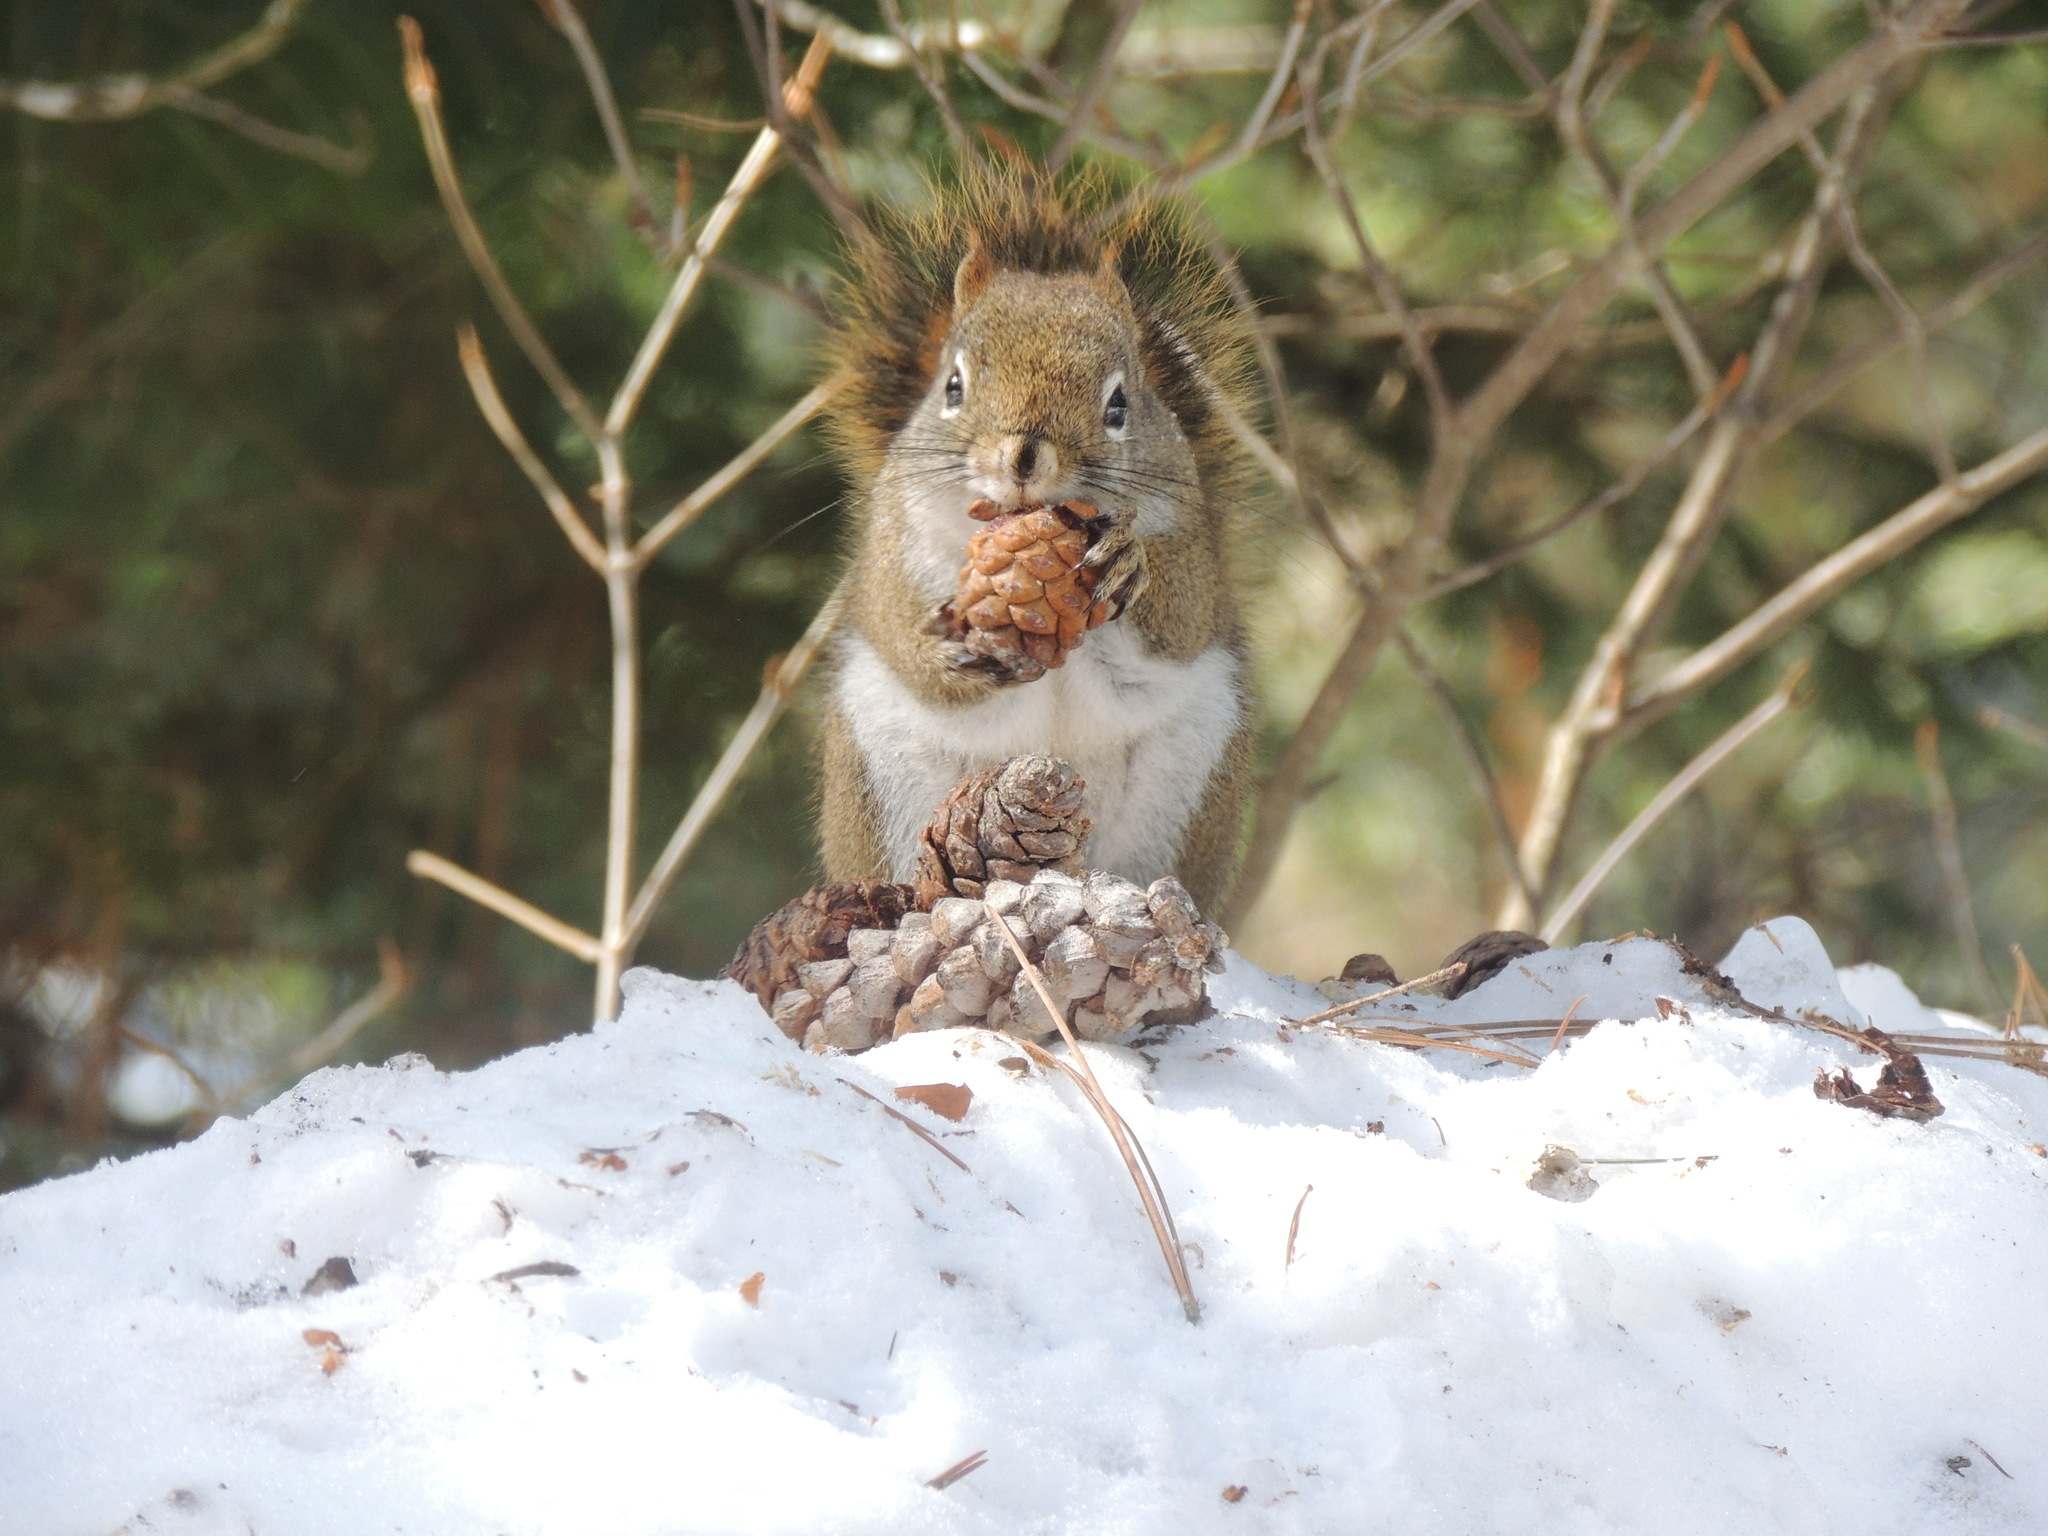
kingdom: Animalia
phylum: Chordata
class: Mammalia
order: Rodentia
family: Sciuridae
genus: Tamiasciurus
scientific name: Tamiasciurus hudsonicus
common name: Red squirrel
